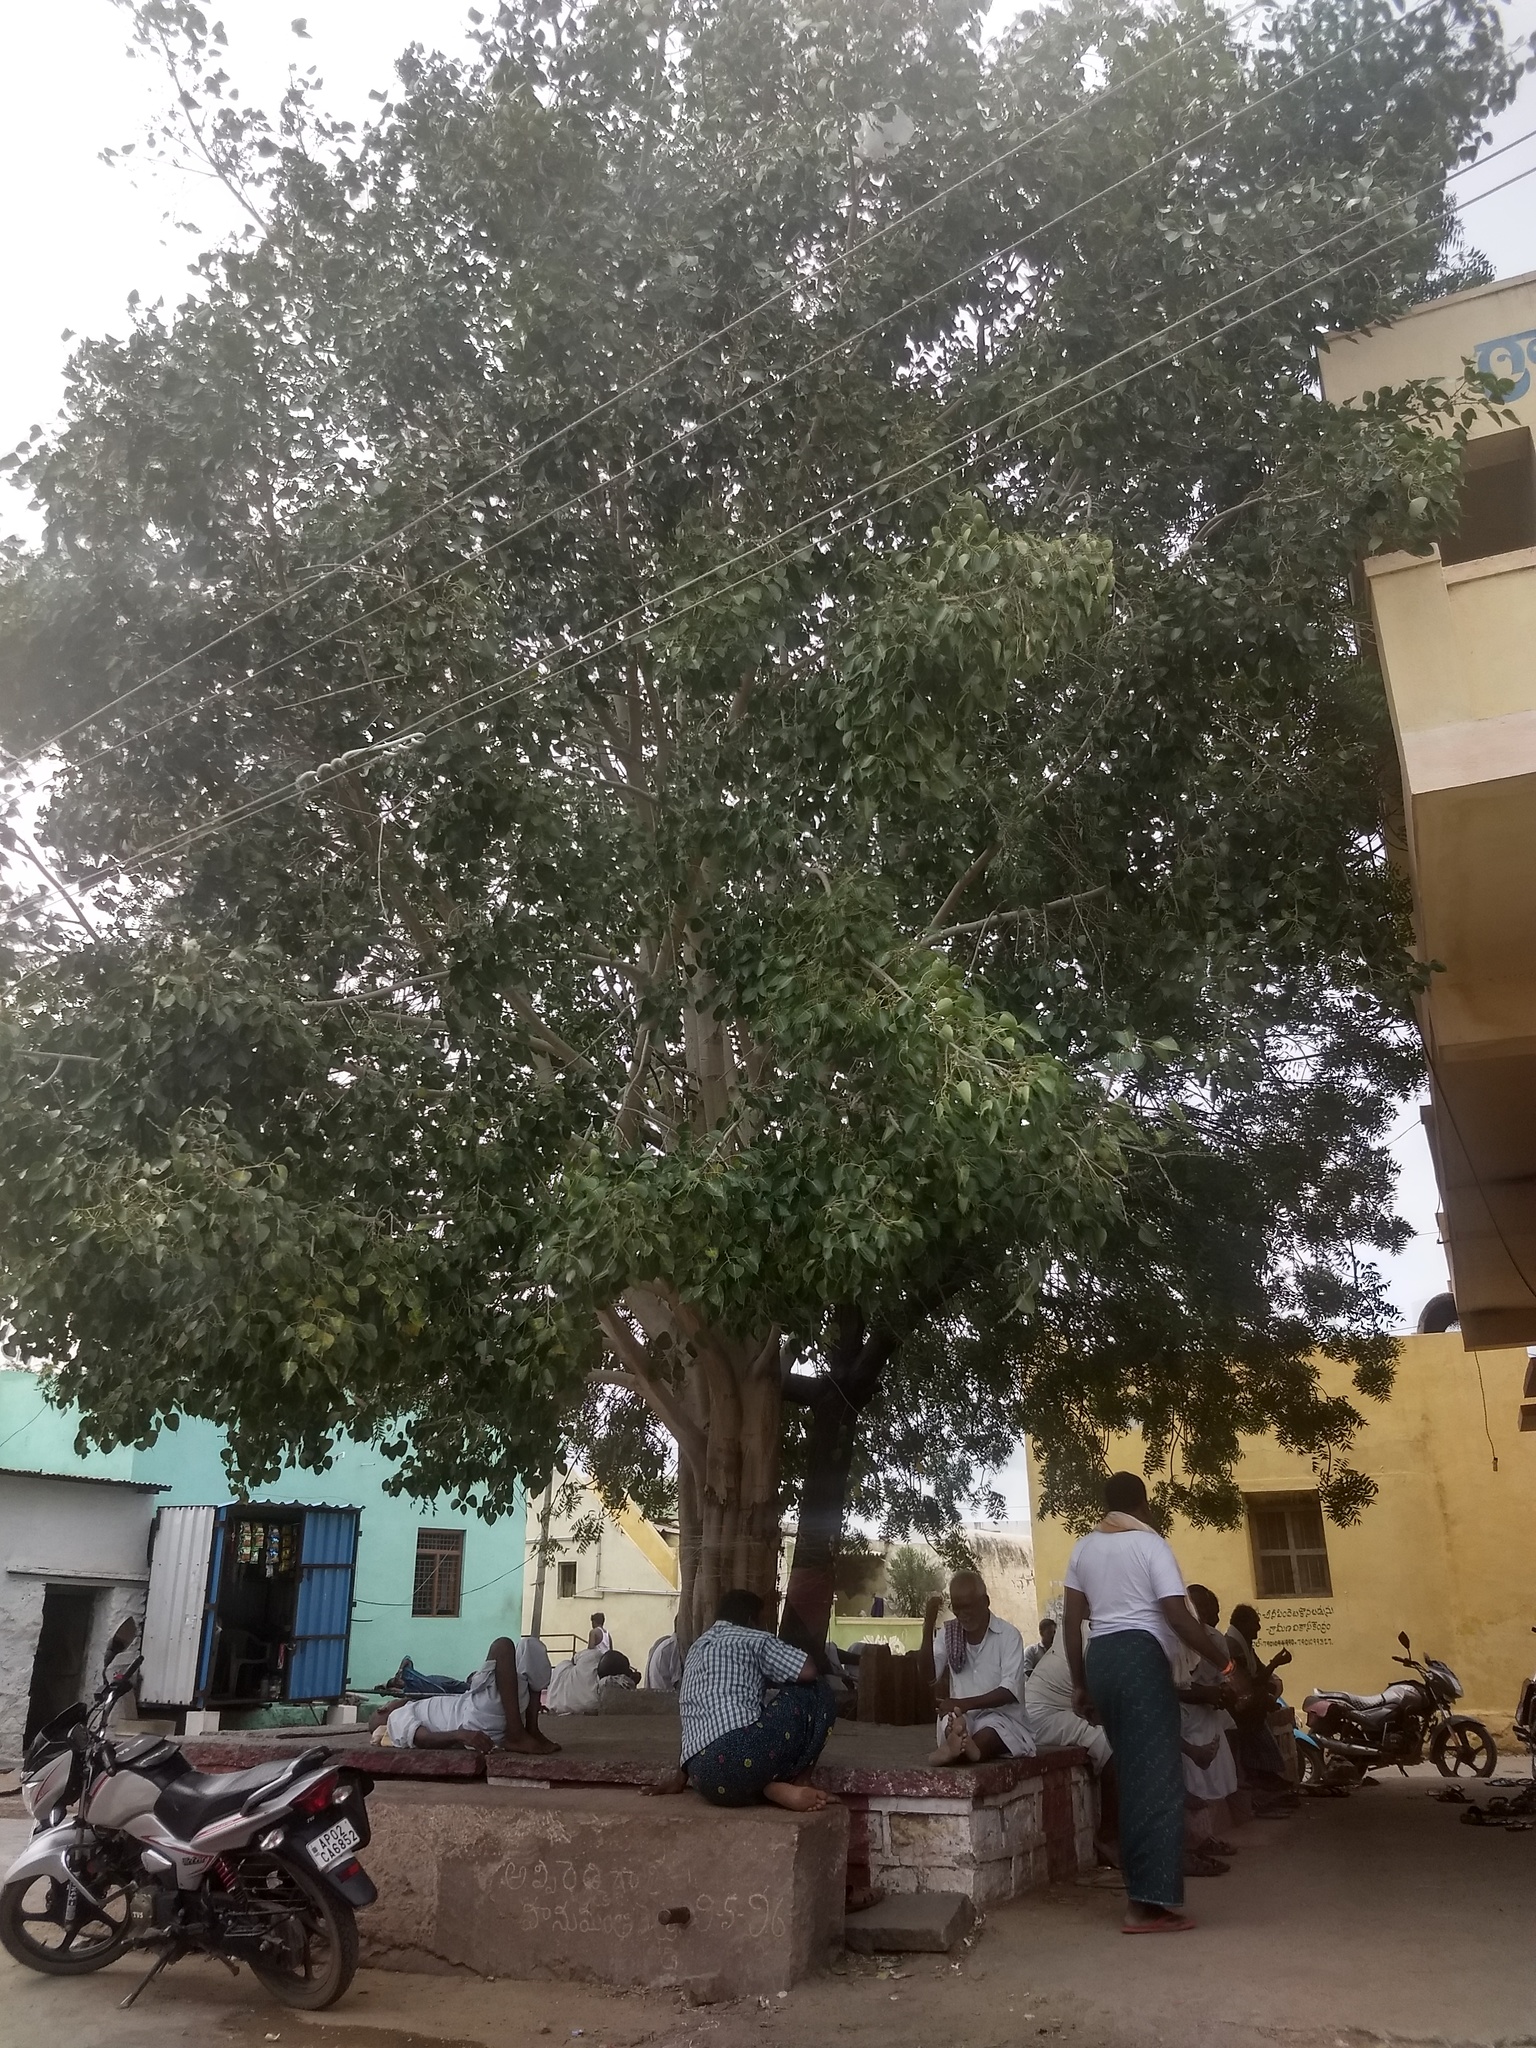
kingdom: Plantae
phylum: Tracheophyta
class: Magnoliopsida
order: Rosales
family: Moraceae
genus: Ficus
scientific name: Ficus religiosa
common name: Bodhi tree
